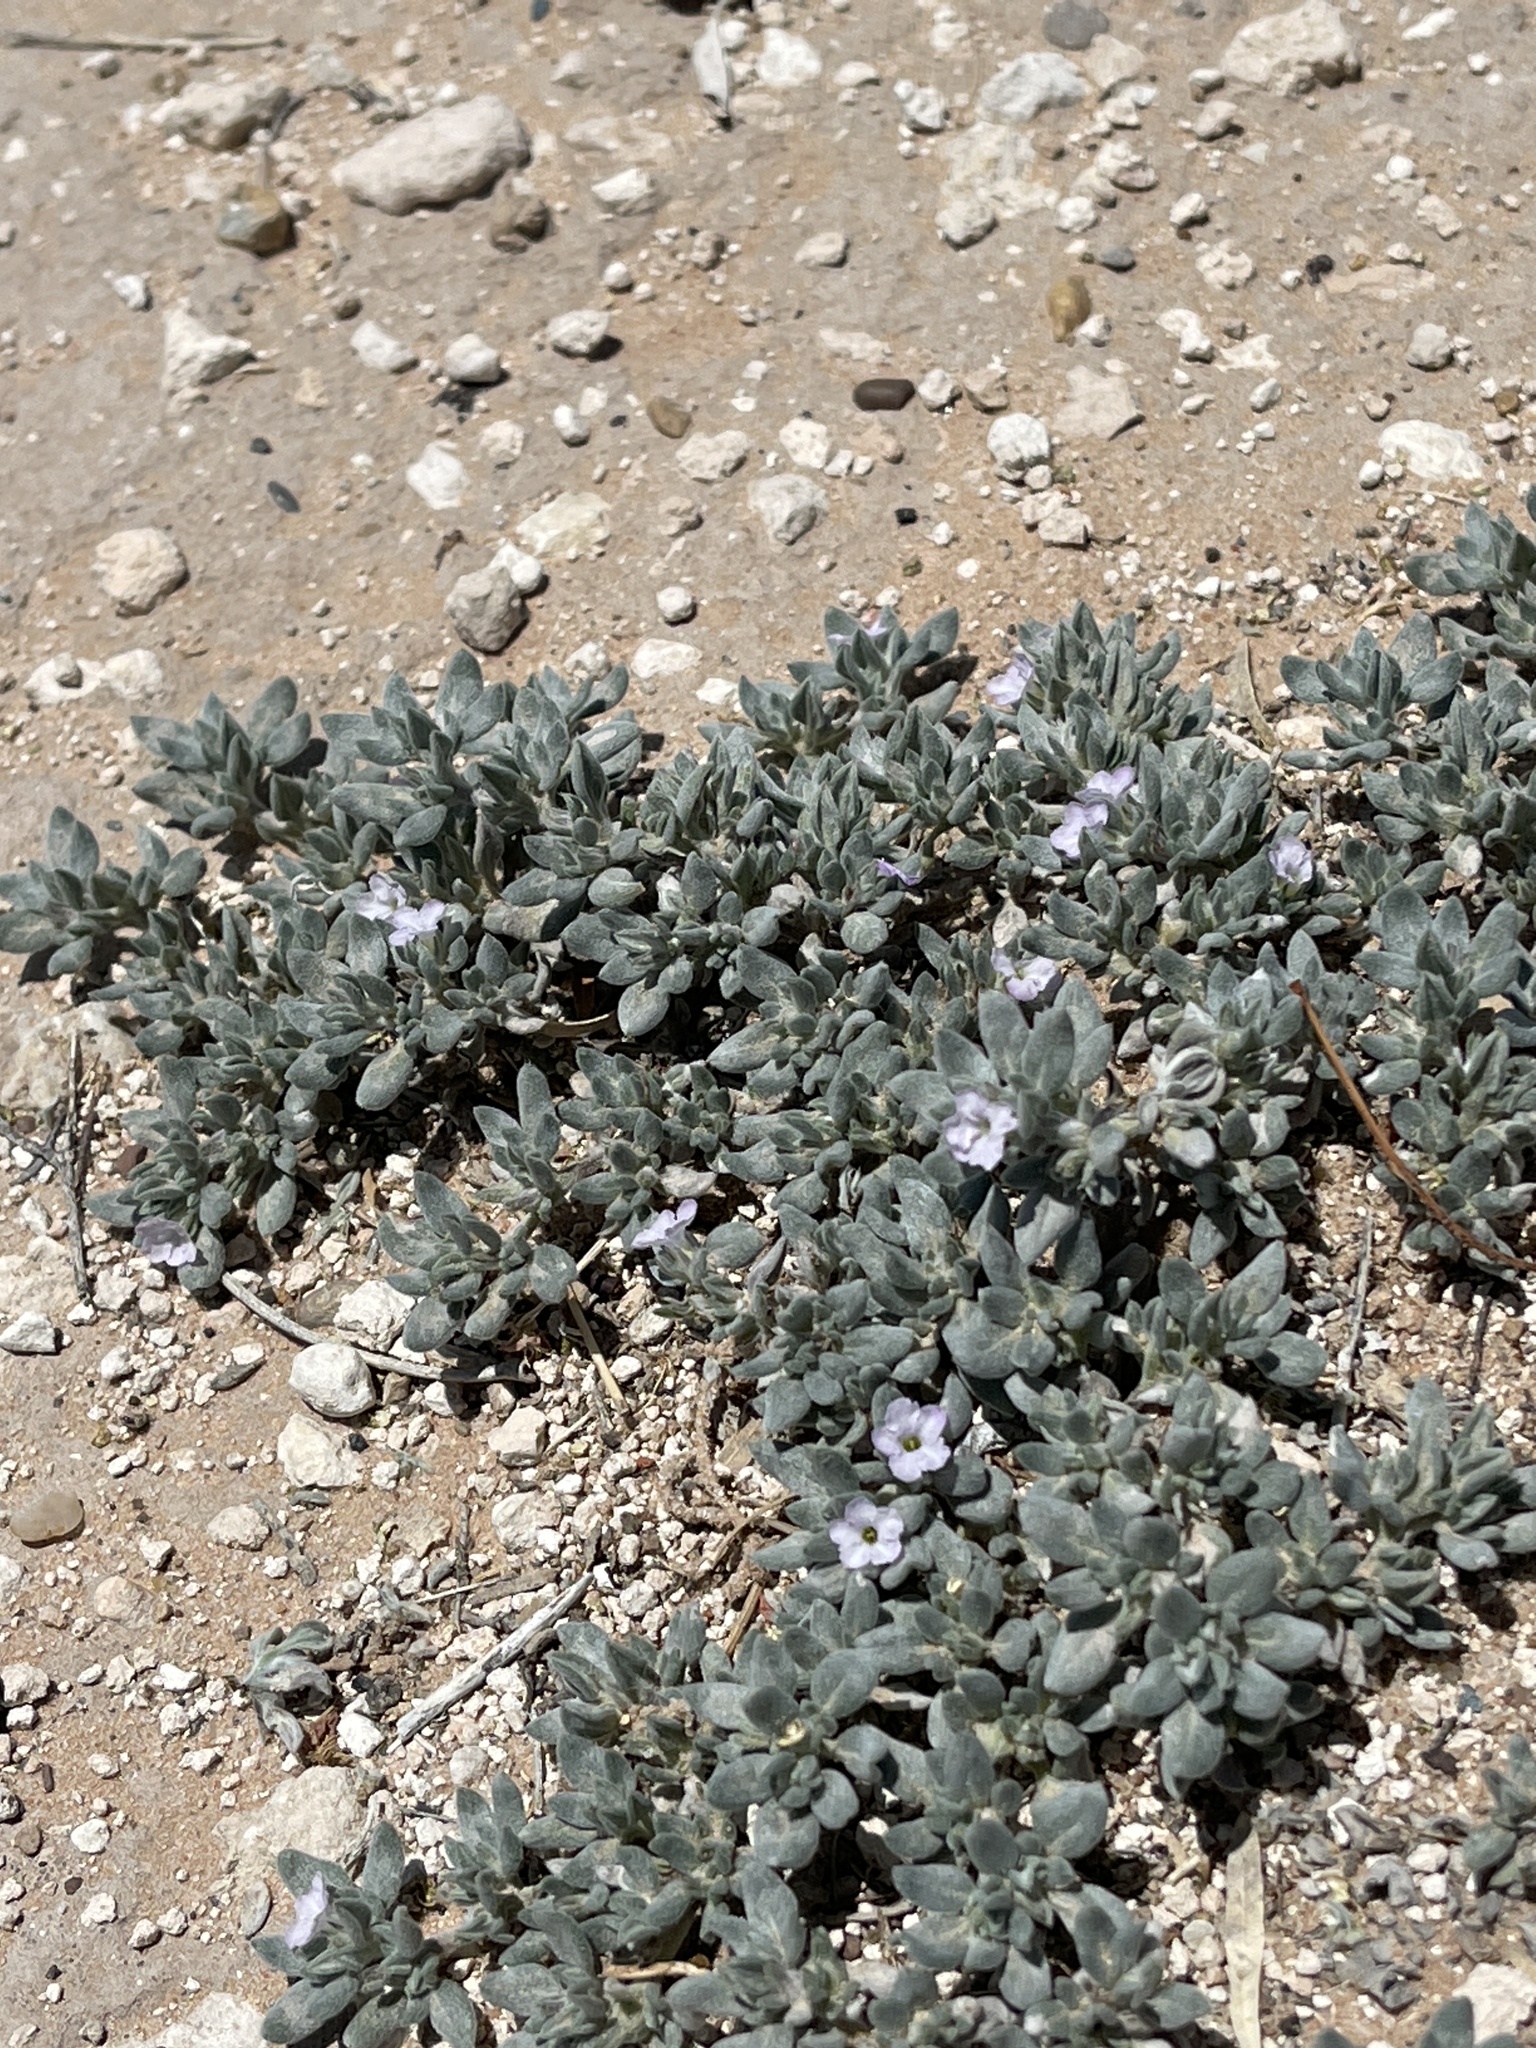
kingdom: Plantae
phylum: Tracheophyta
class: Magnoliopsida
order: Boraginales
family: Ehretiaceae
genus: Tiquilia
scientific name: Tiquilia canescens
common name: Hairy tiquilia
